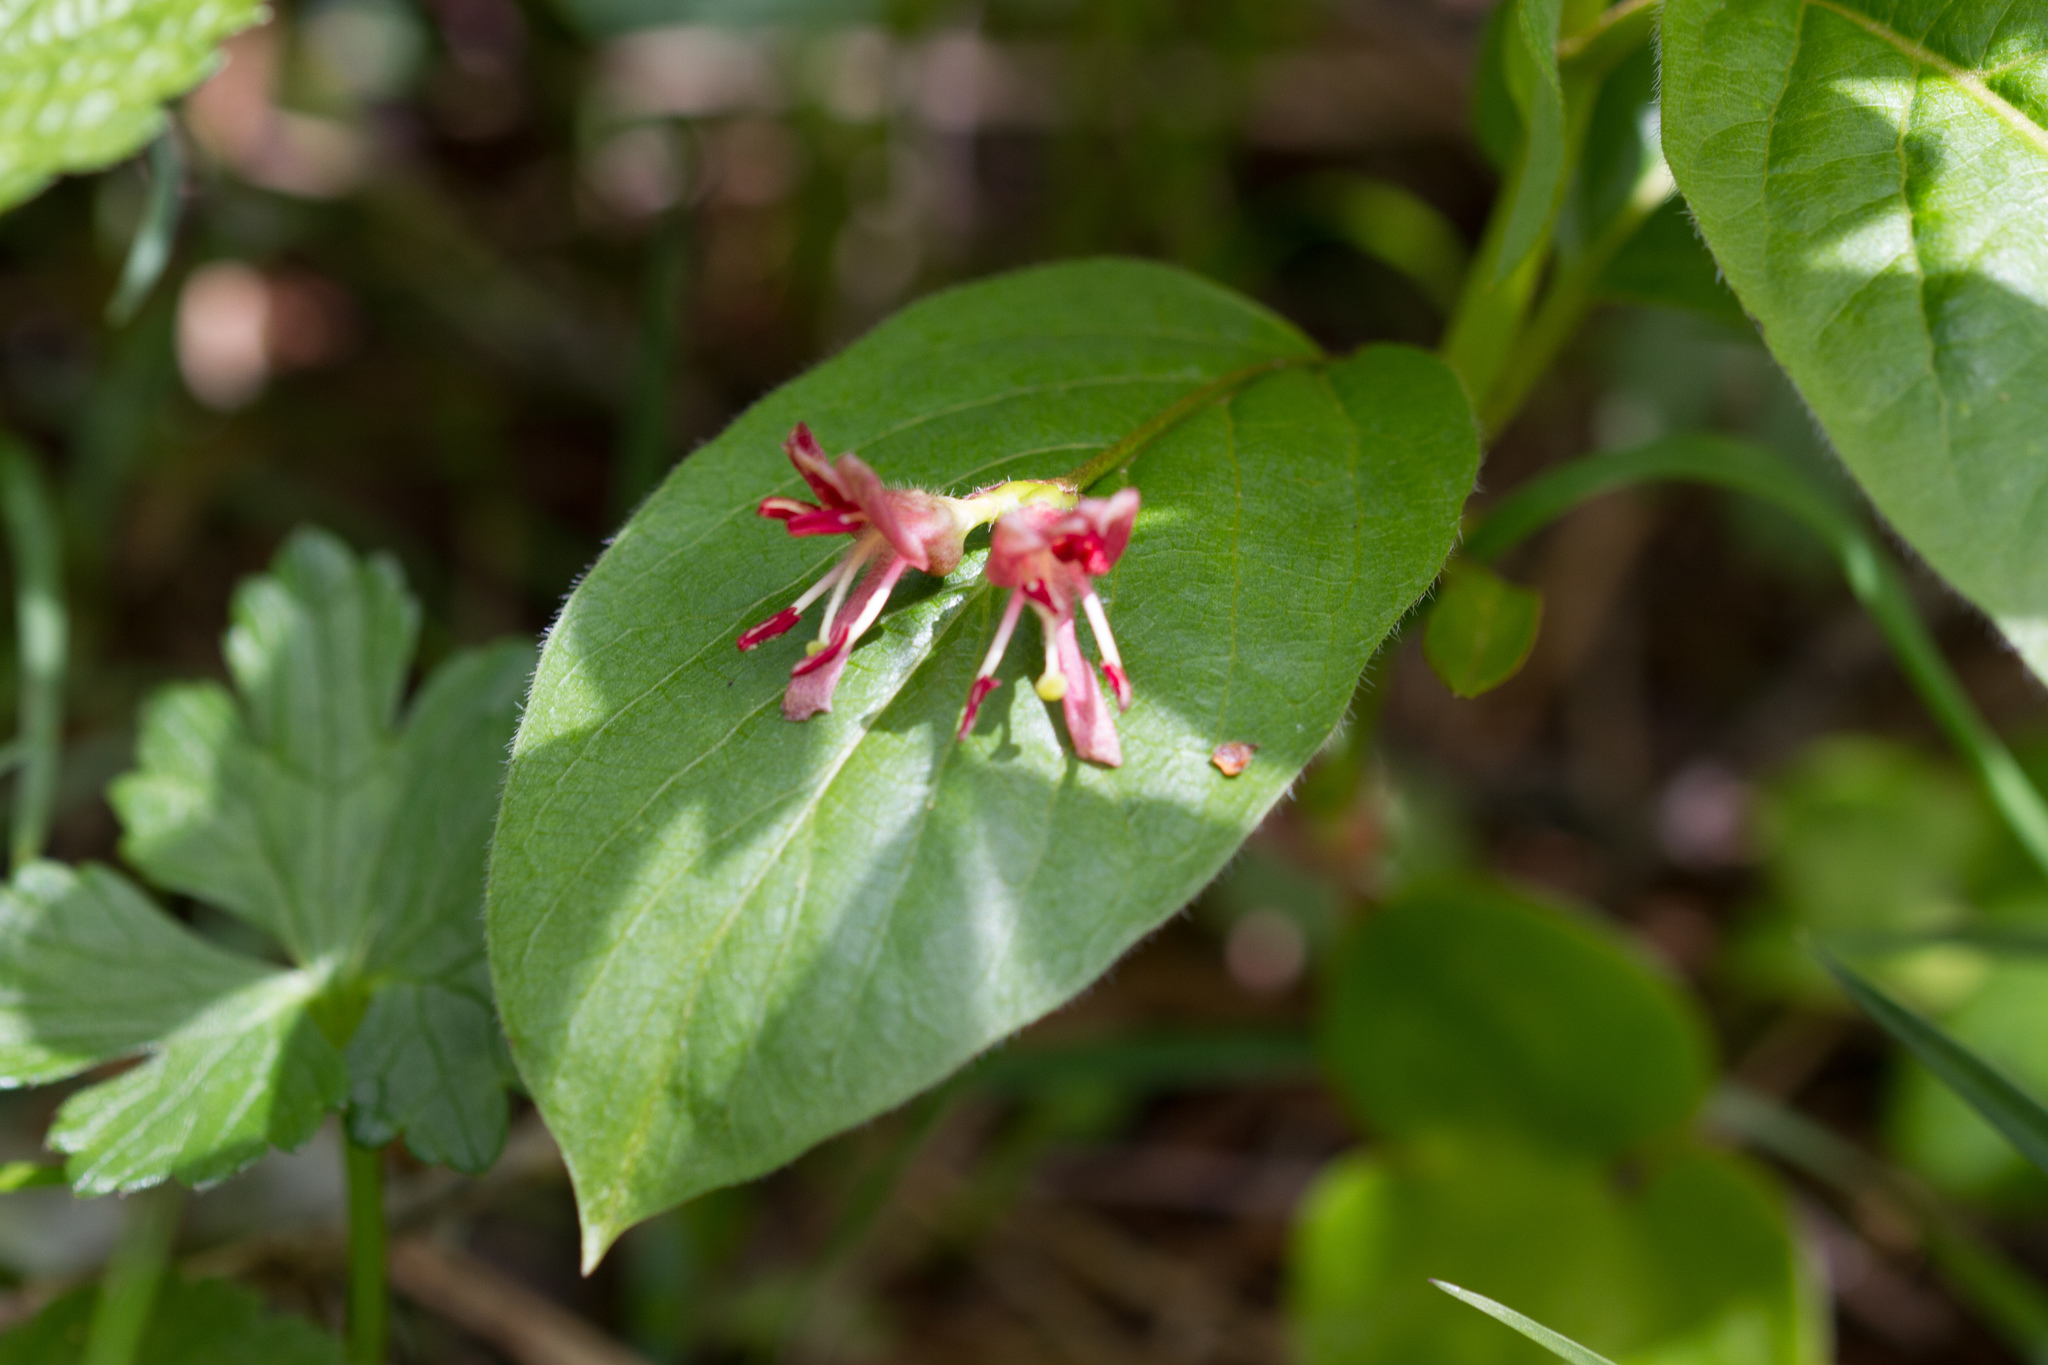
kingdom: Plantae
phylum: Tracheophyta
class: Magnoliopsida
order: Dipsacales
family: Caprifoliaceae
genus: Lonicera
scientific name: Lonicera alpigena
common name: Alpine honeysuckle
